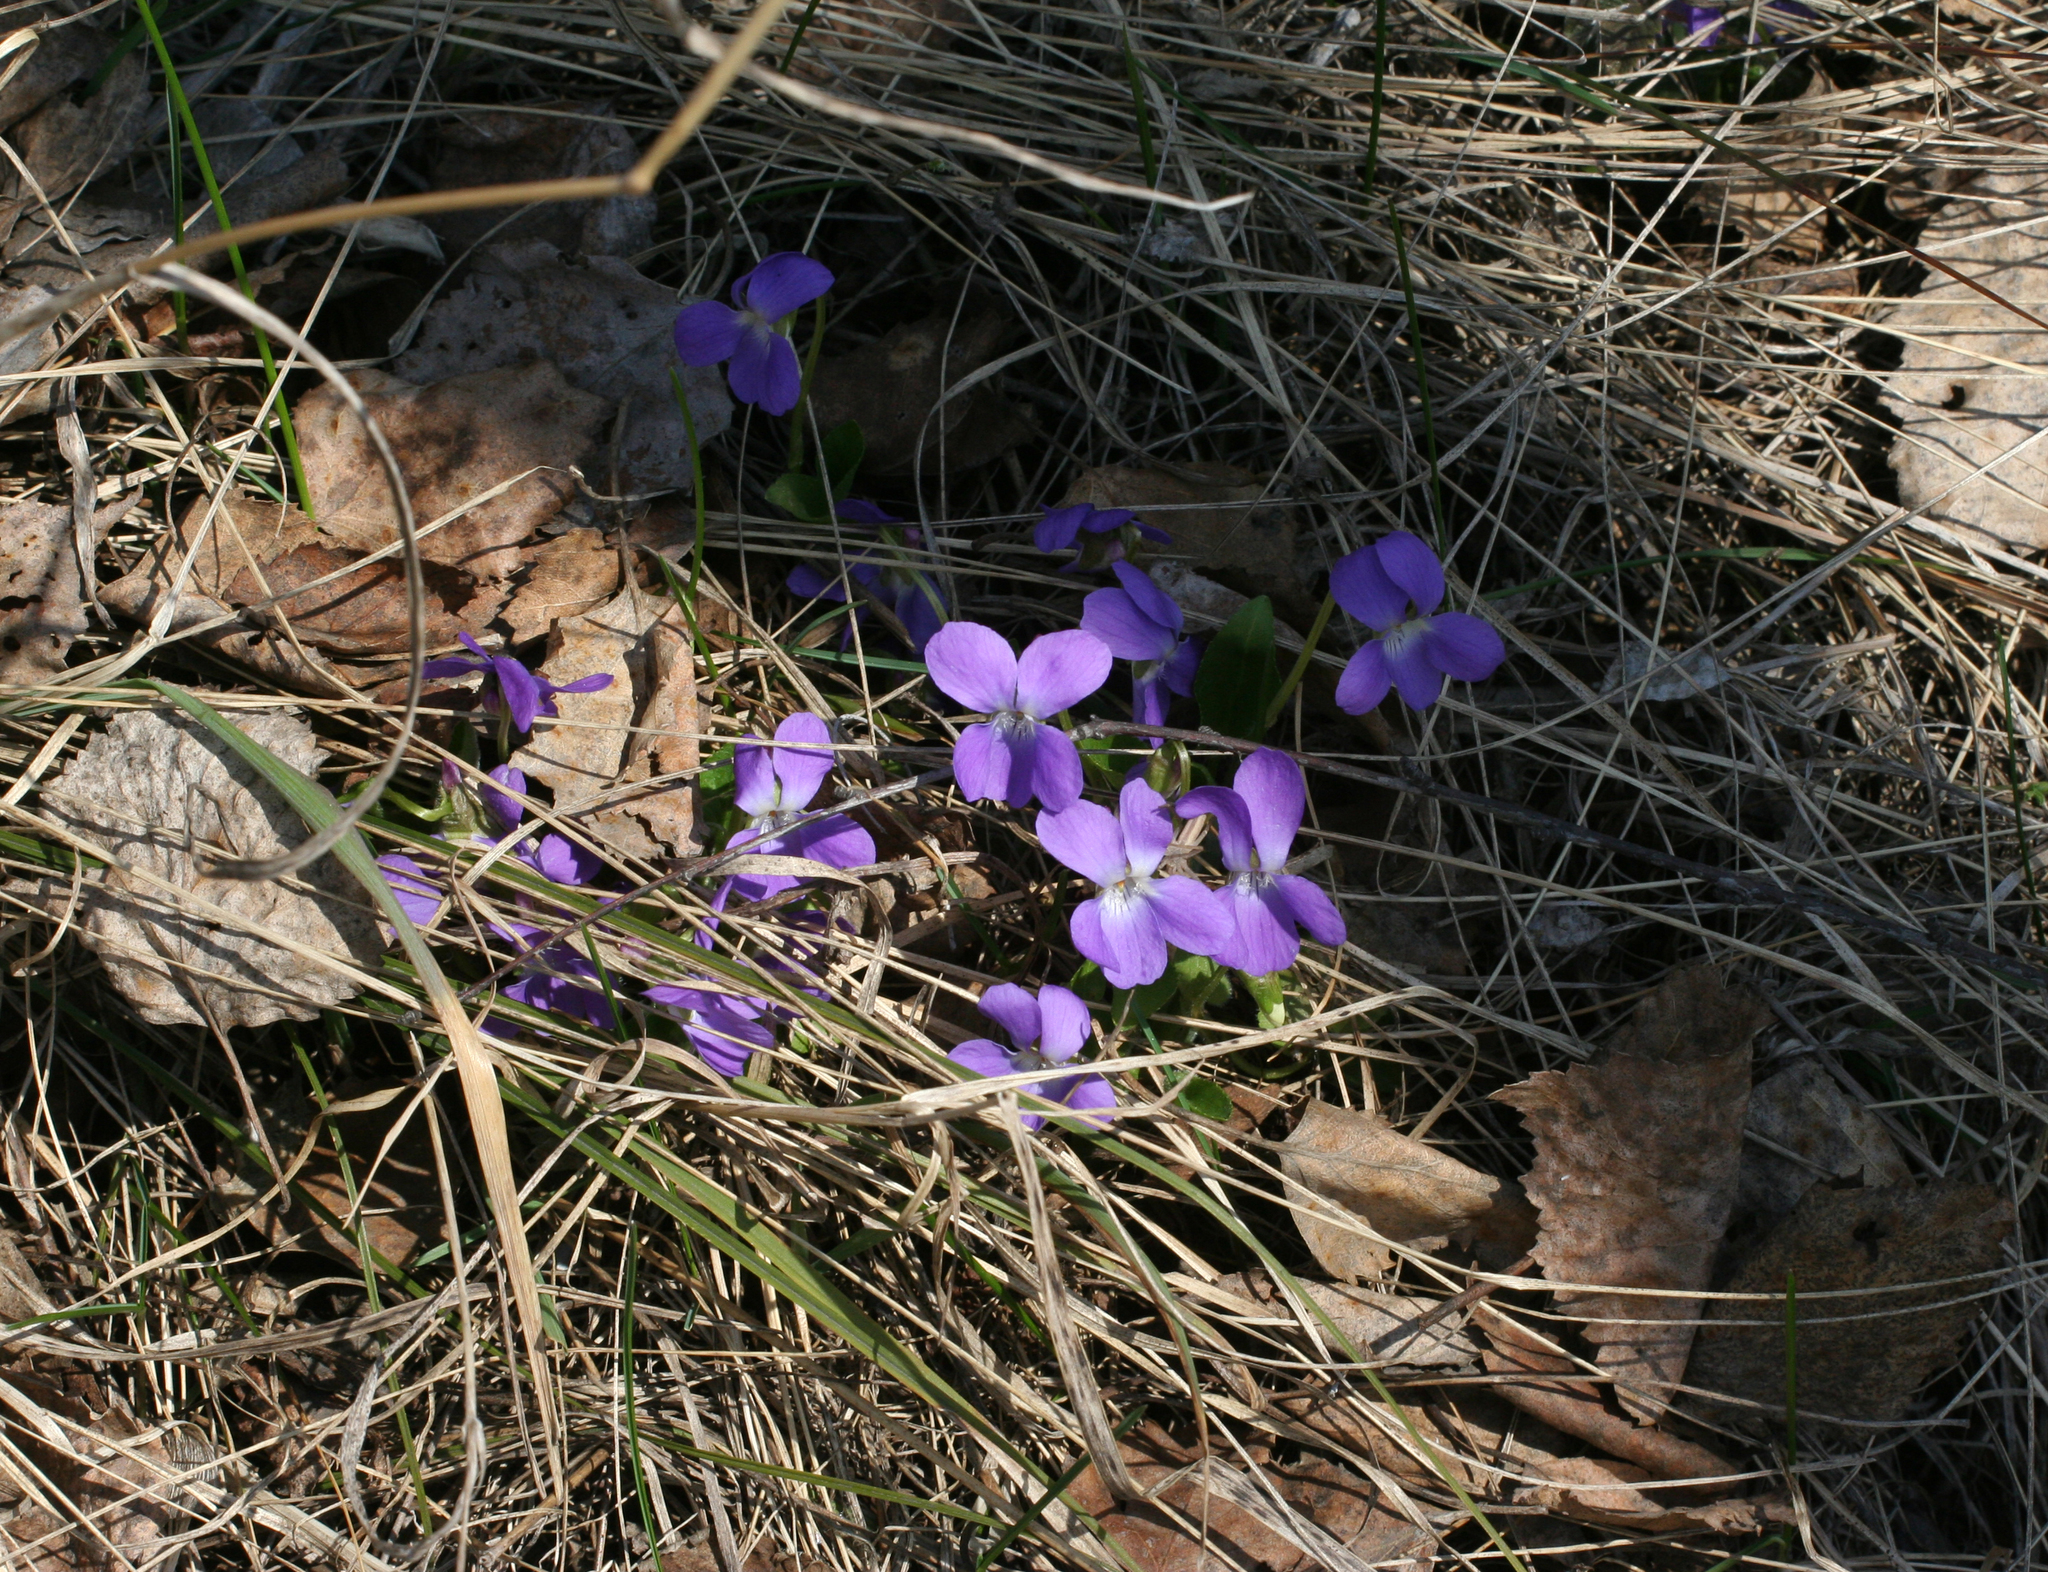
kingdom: Plantae
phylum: Tracheophyta
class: Magnoliopsida
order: Malpighiales
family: Violaceae
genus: Viola
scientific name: Viola hirta
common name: Hairy violet
